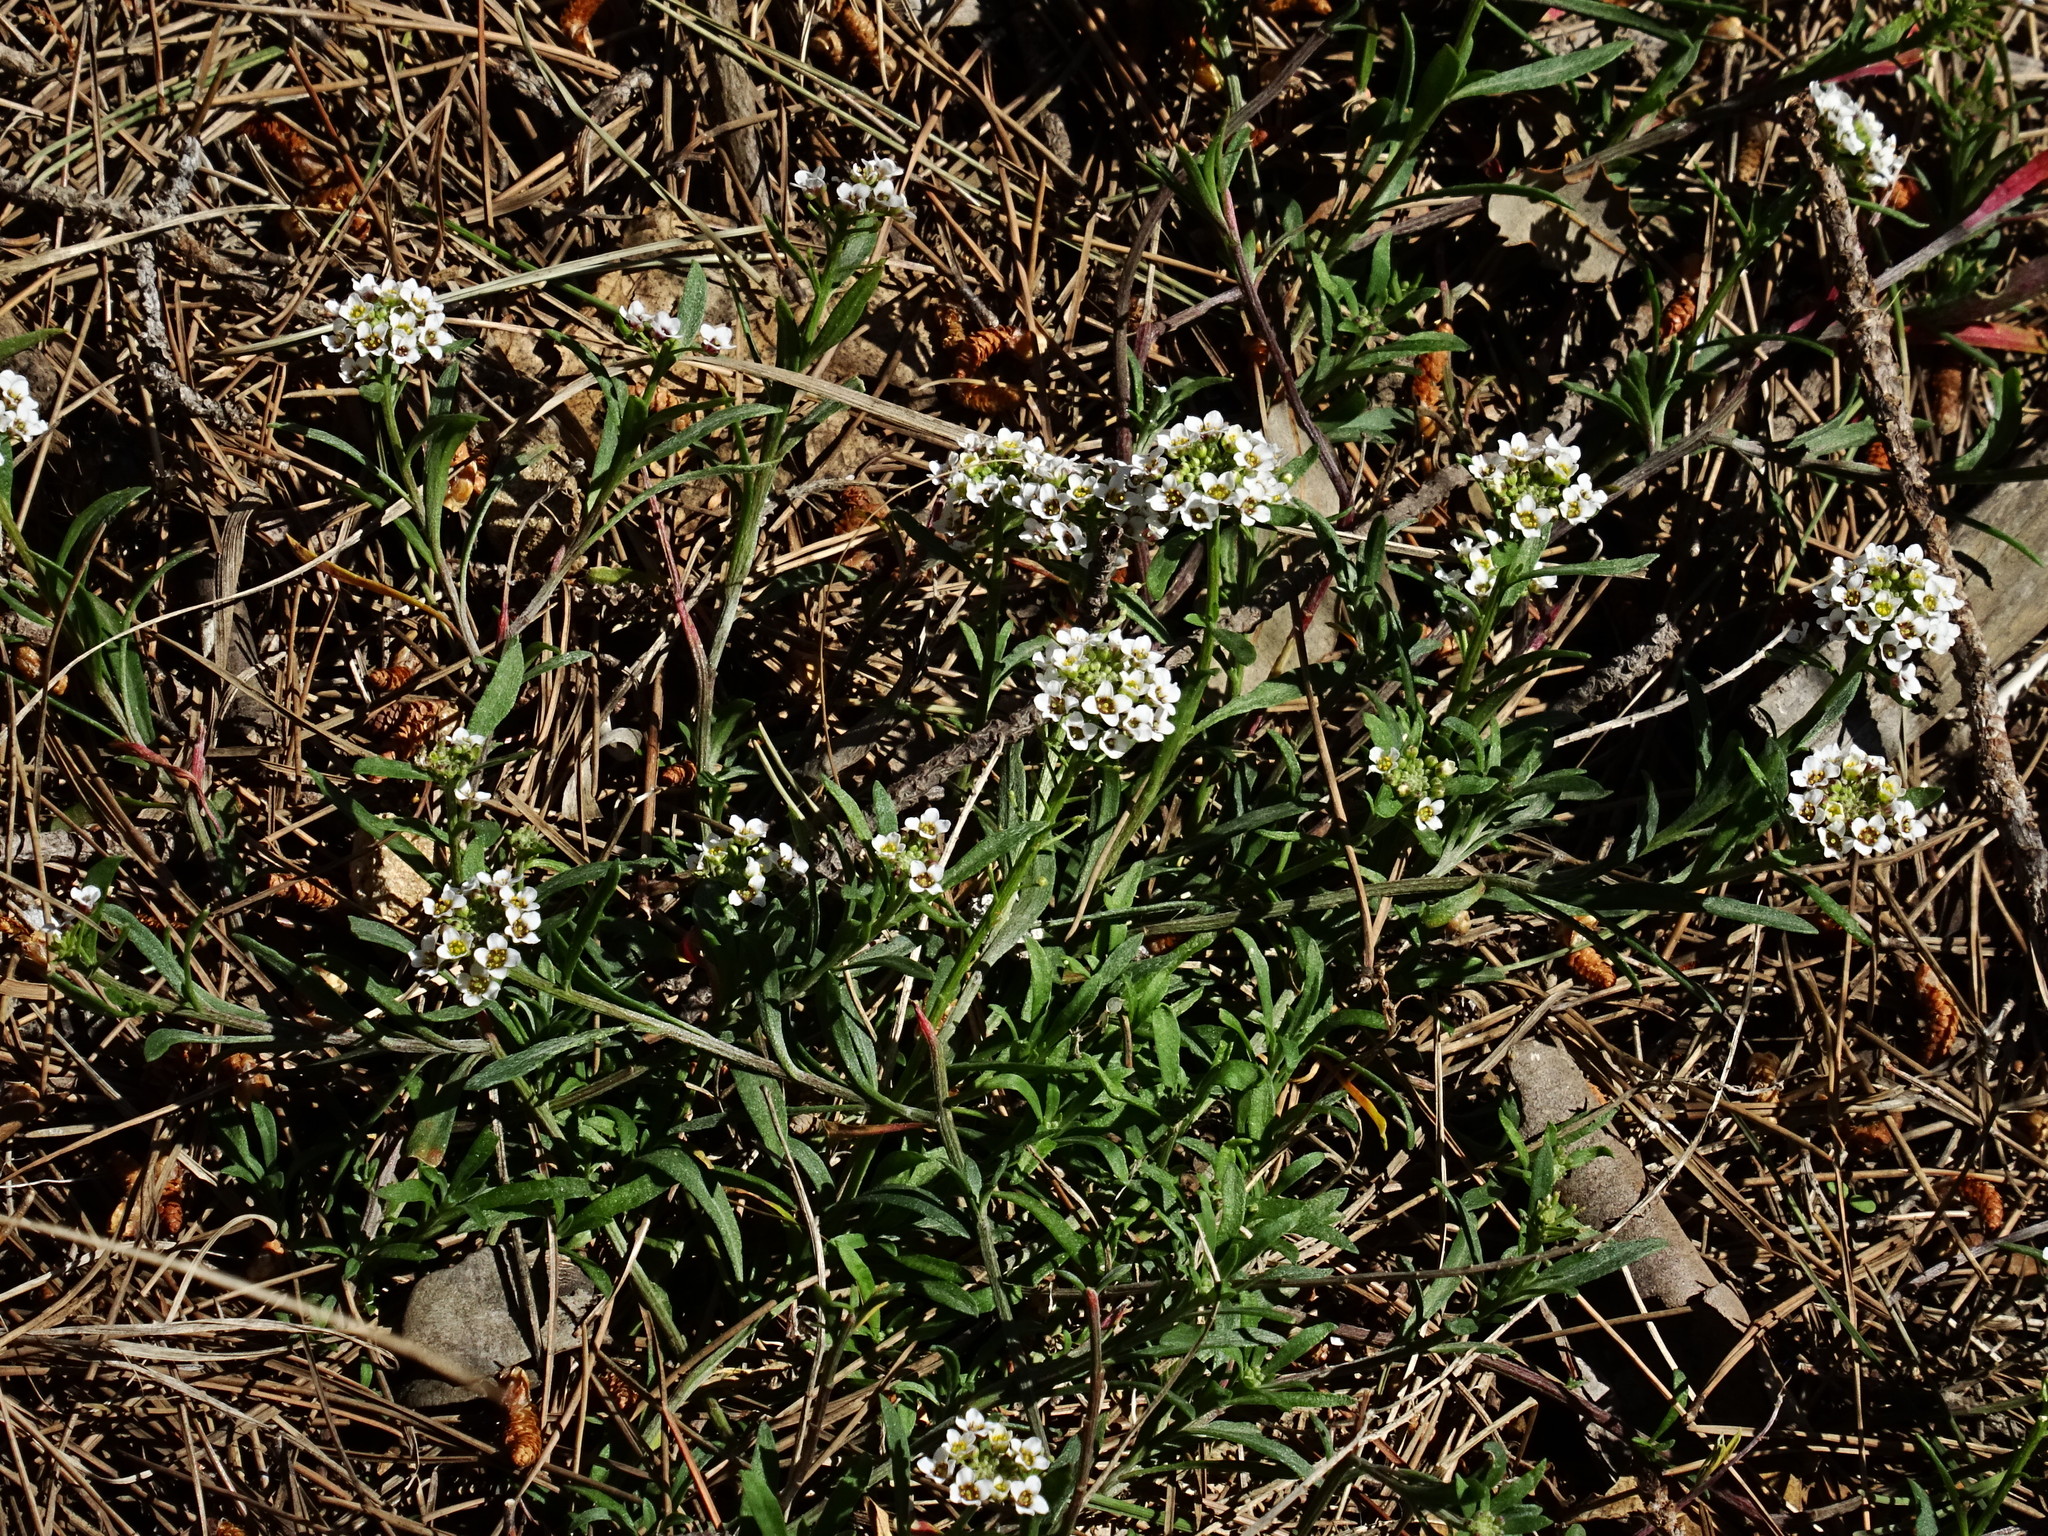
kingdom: Plantae
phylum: Tracheophyta
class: Magnoliopsida
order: Brassicales
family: Brassicaceae
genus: Lobularia
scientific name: Lobularia maritima
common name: Sweet alison
